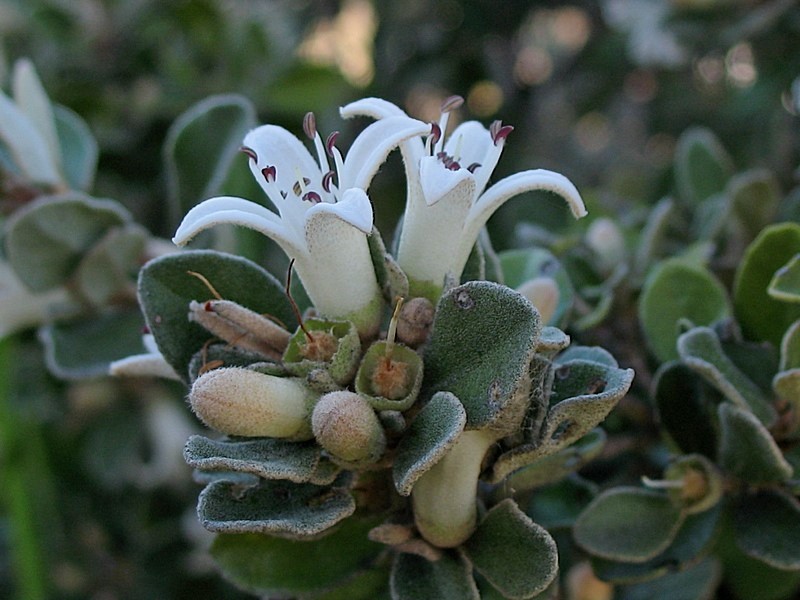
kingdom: Plantae
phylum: Tracheophyta
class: Magnoliopsida
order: Sapindales
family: Rutaceae
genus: Correa
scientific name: Correa alba
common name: White correa
